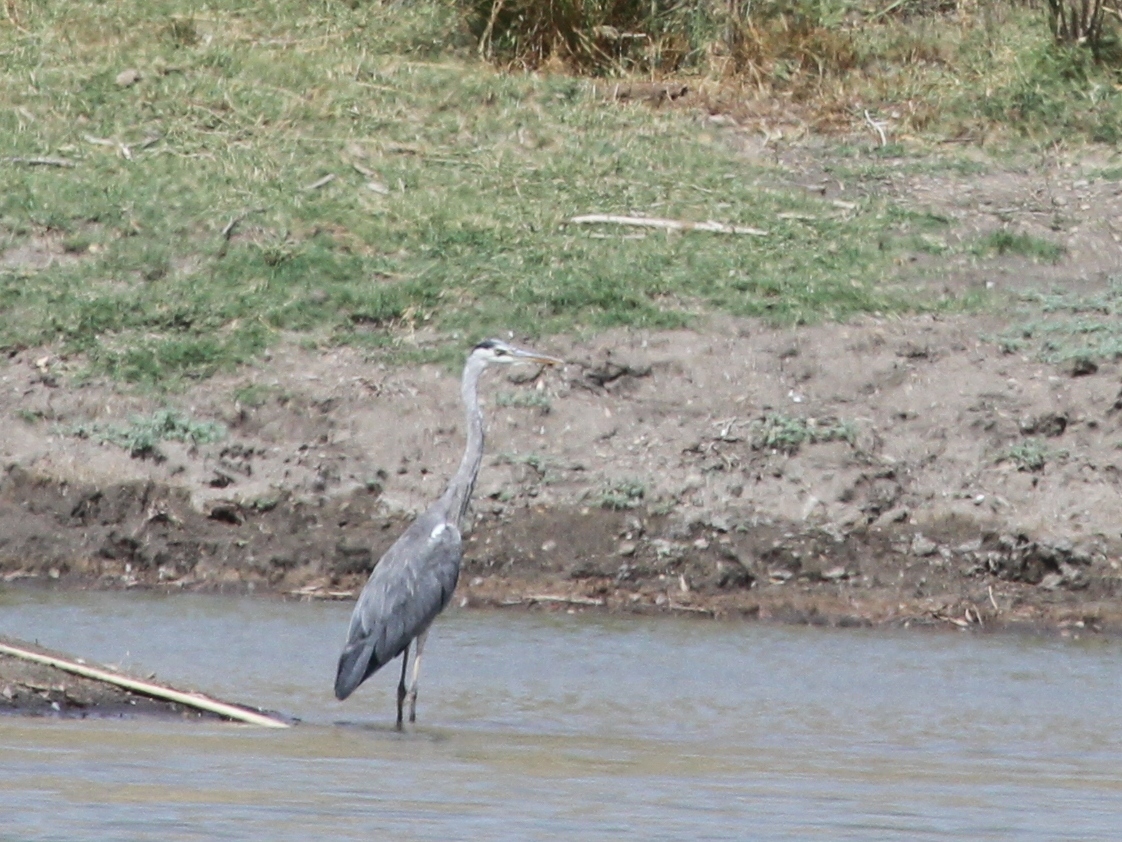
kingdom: Animalia
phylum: Chordata
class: Aves
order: Pelecaniformes
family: Ardeidae
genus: Ardea
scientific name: Ardea cinerea
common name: Grey heron
